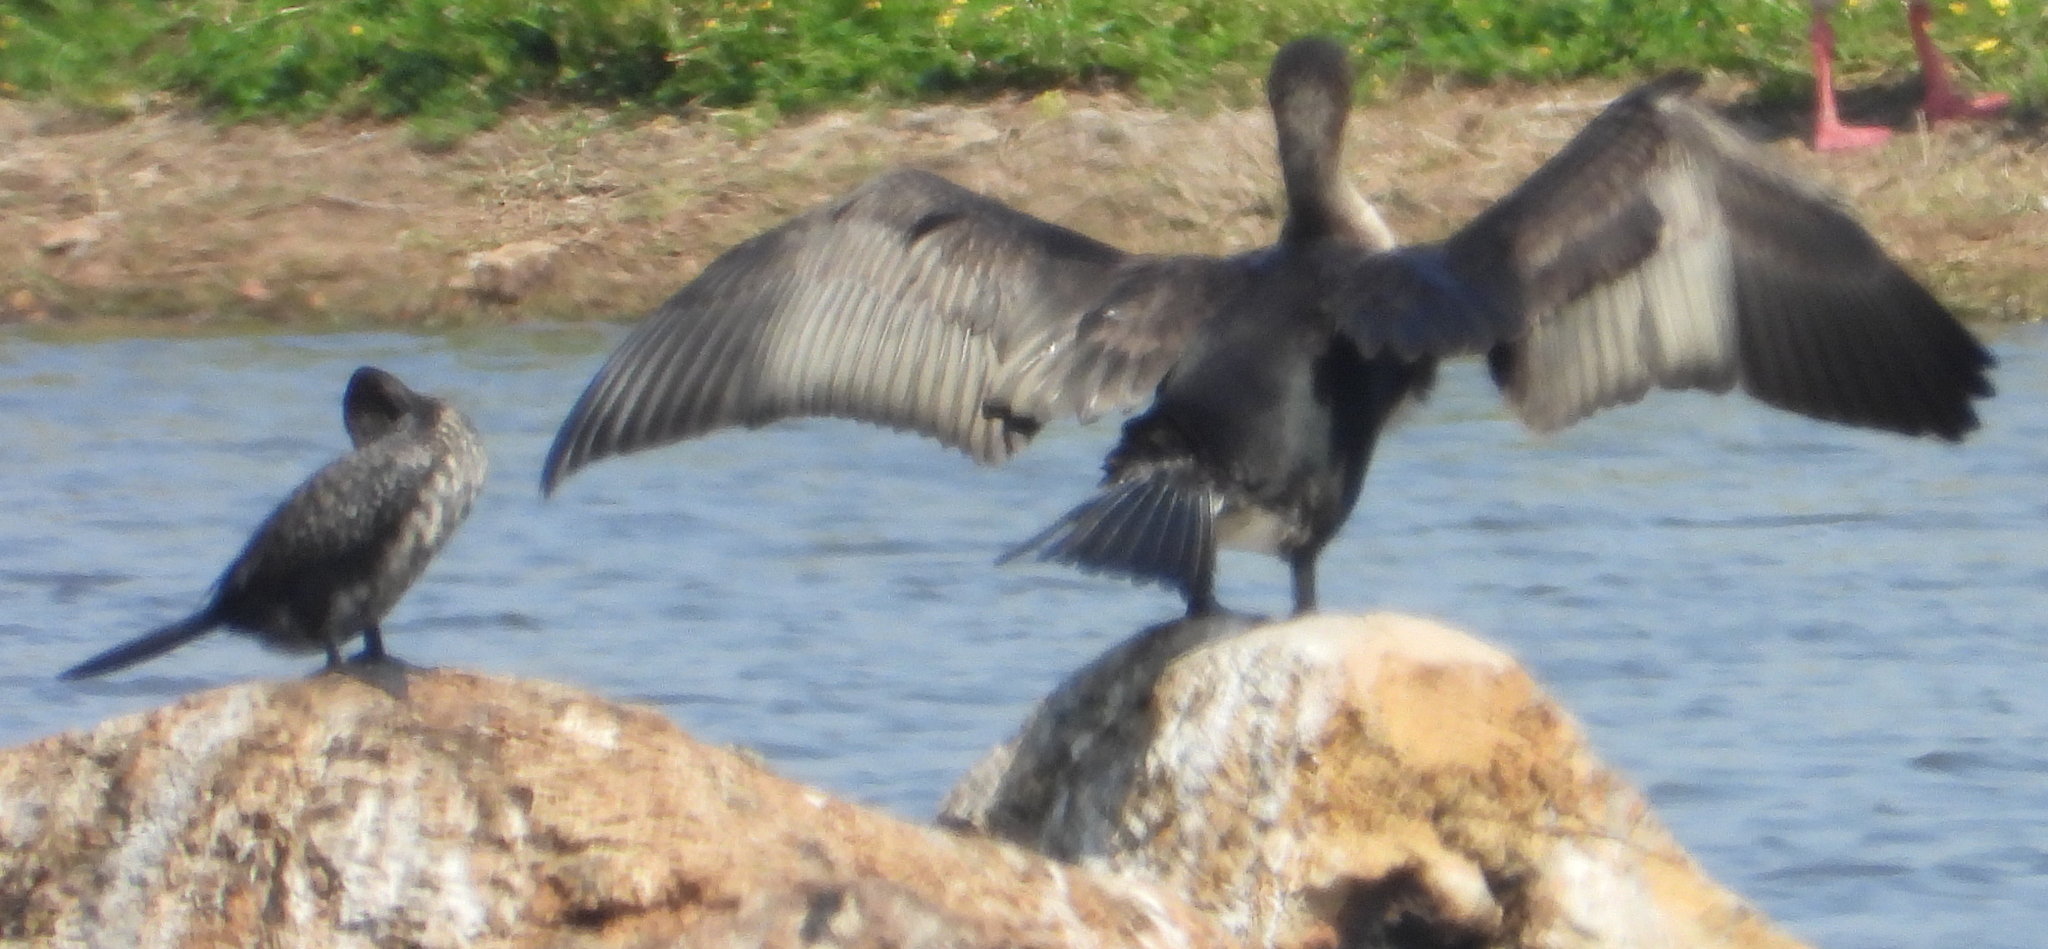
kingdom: Animalia
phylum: Chordata
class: Aves
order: Suliformes
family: Phalacrocoracidae
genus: Microcarbo
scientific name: Microcarbo africanus
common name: Long-tailed cormorant
